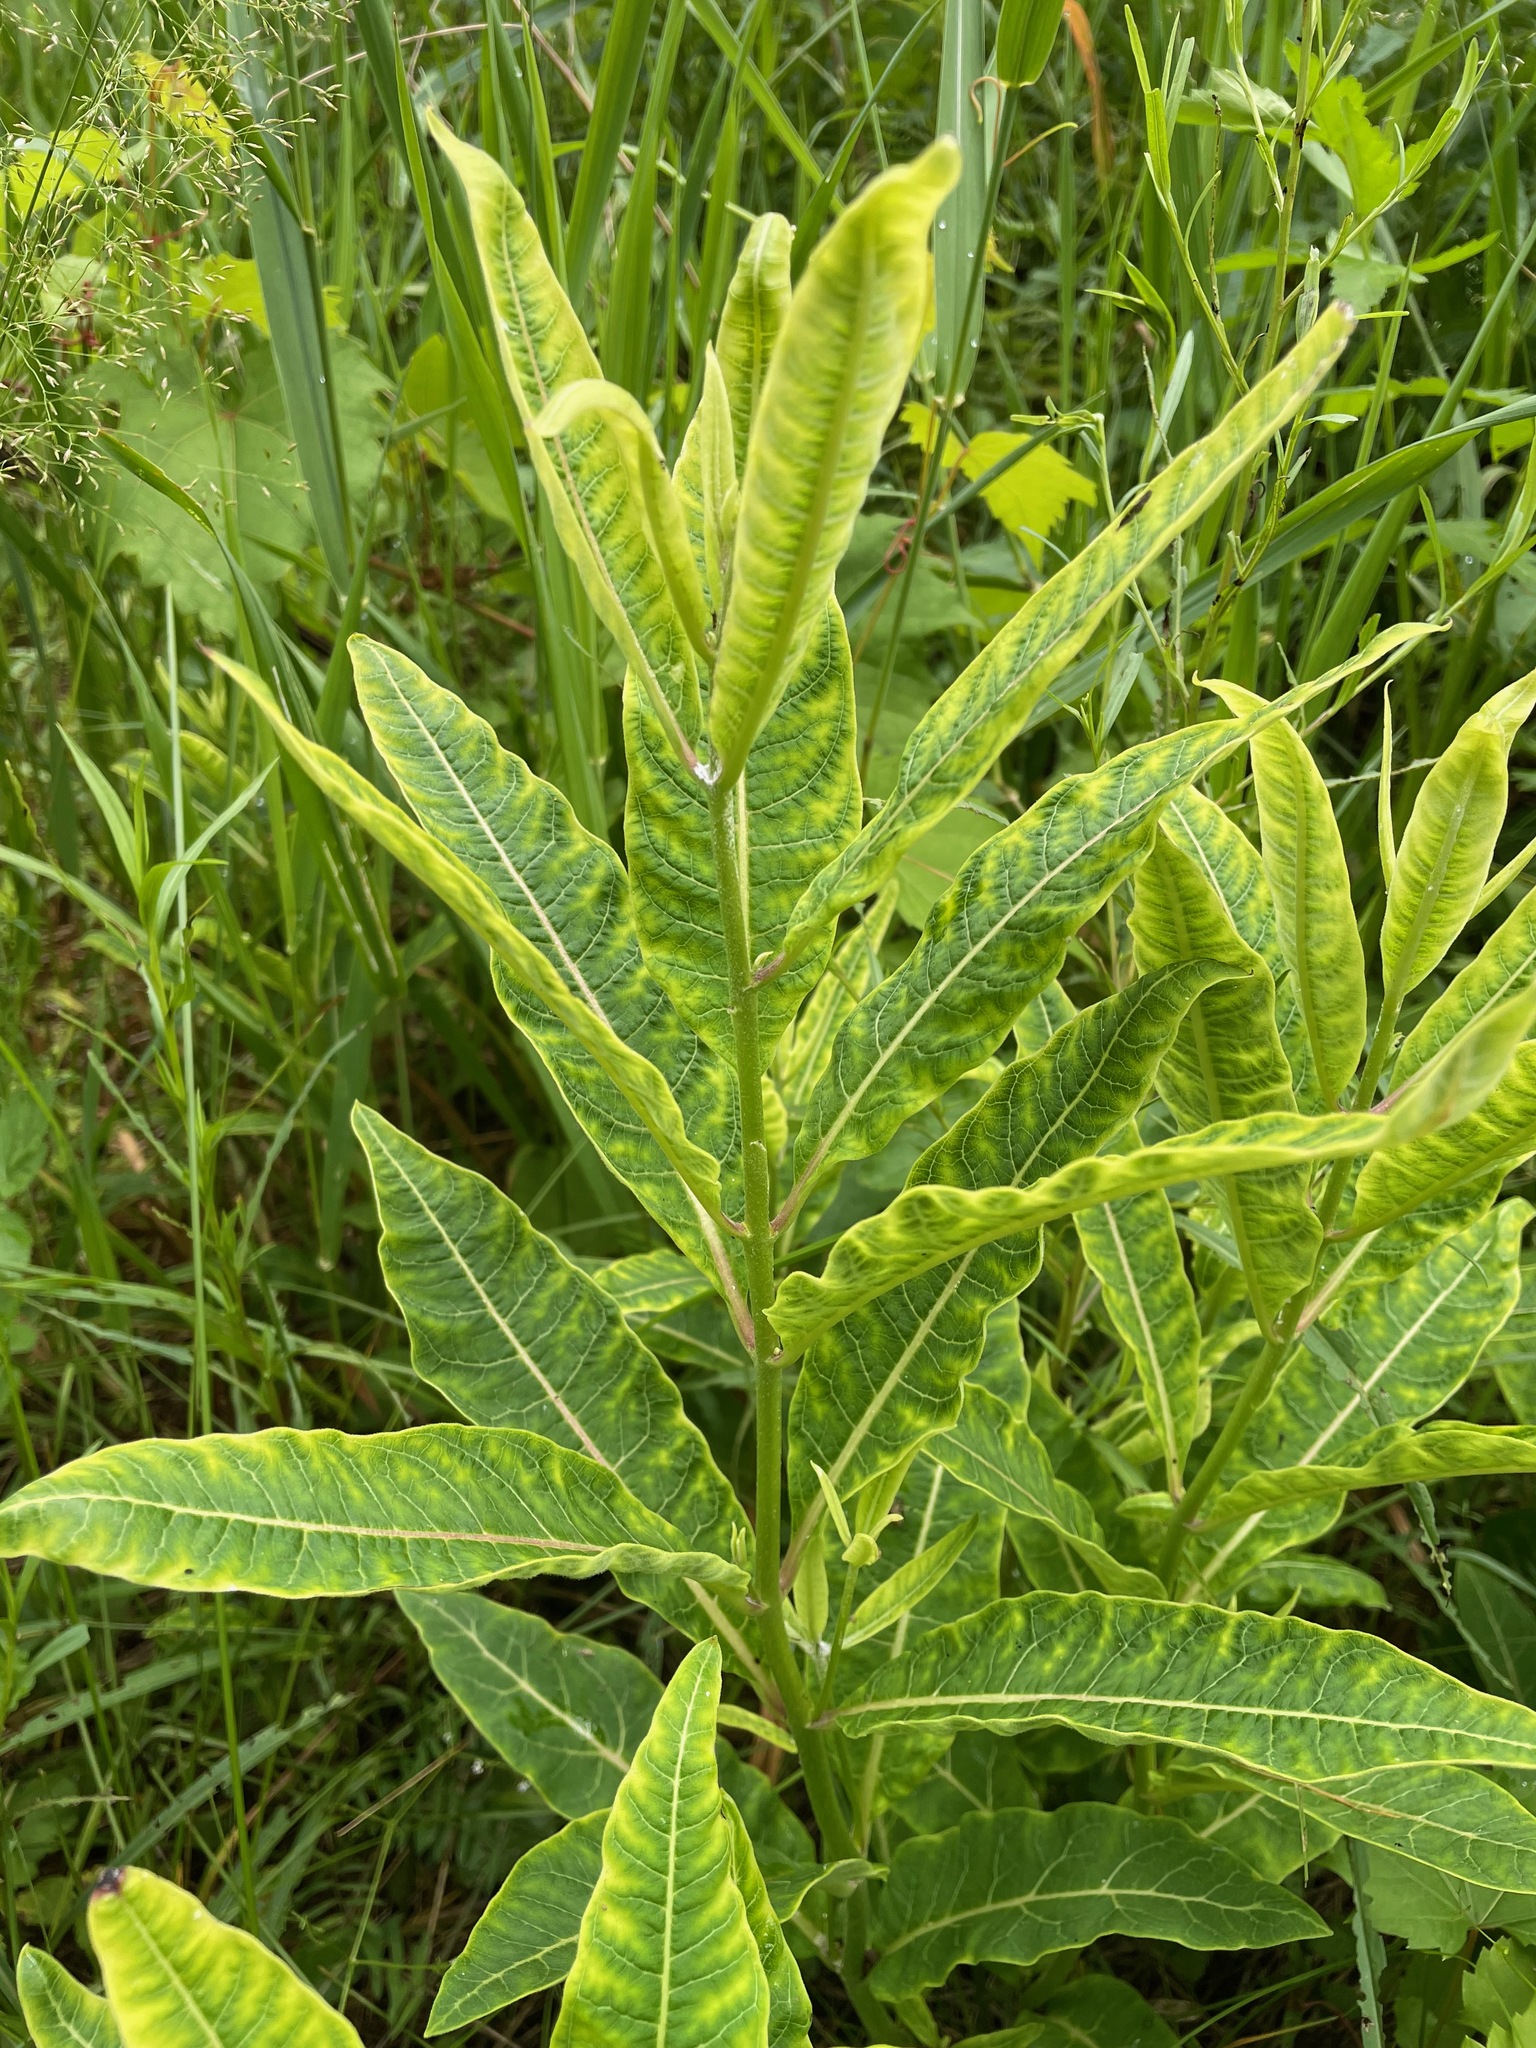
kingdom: Plantae
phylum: Tracheophyta
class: Magnoliopsida
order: Gentianales
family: Apocynaceae
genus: Asclepias
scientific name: Asclepias syriaca
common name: Common milkweed
